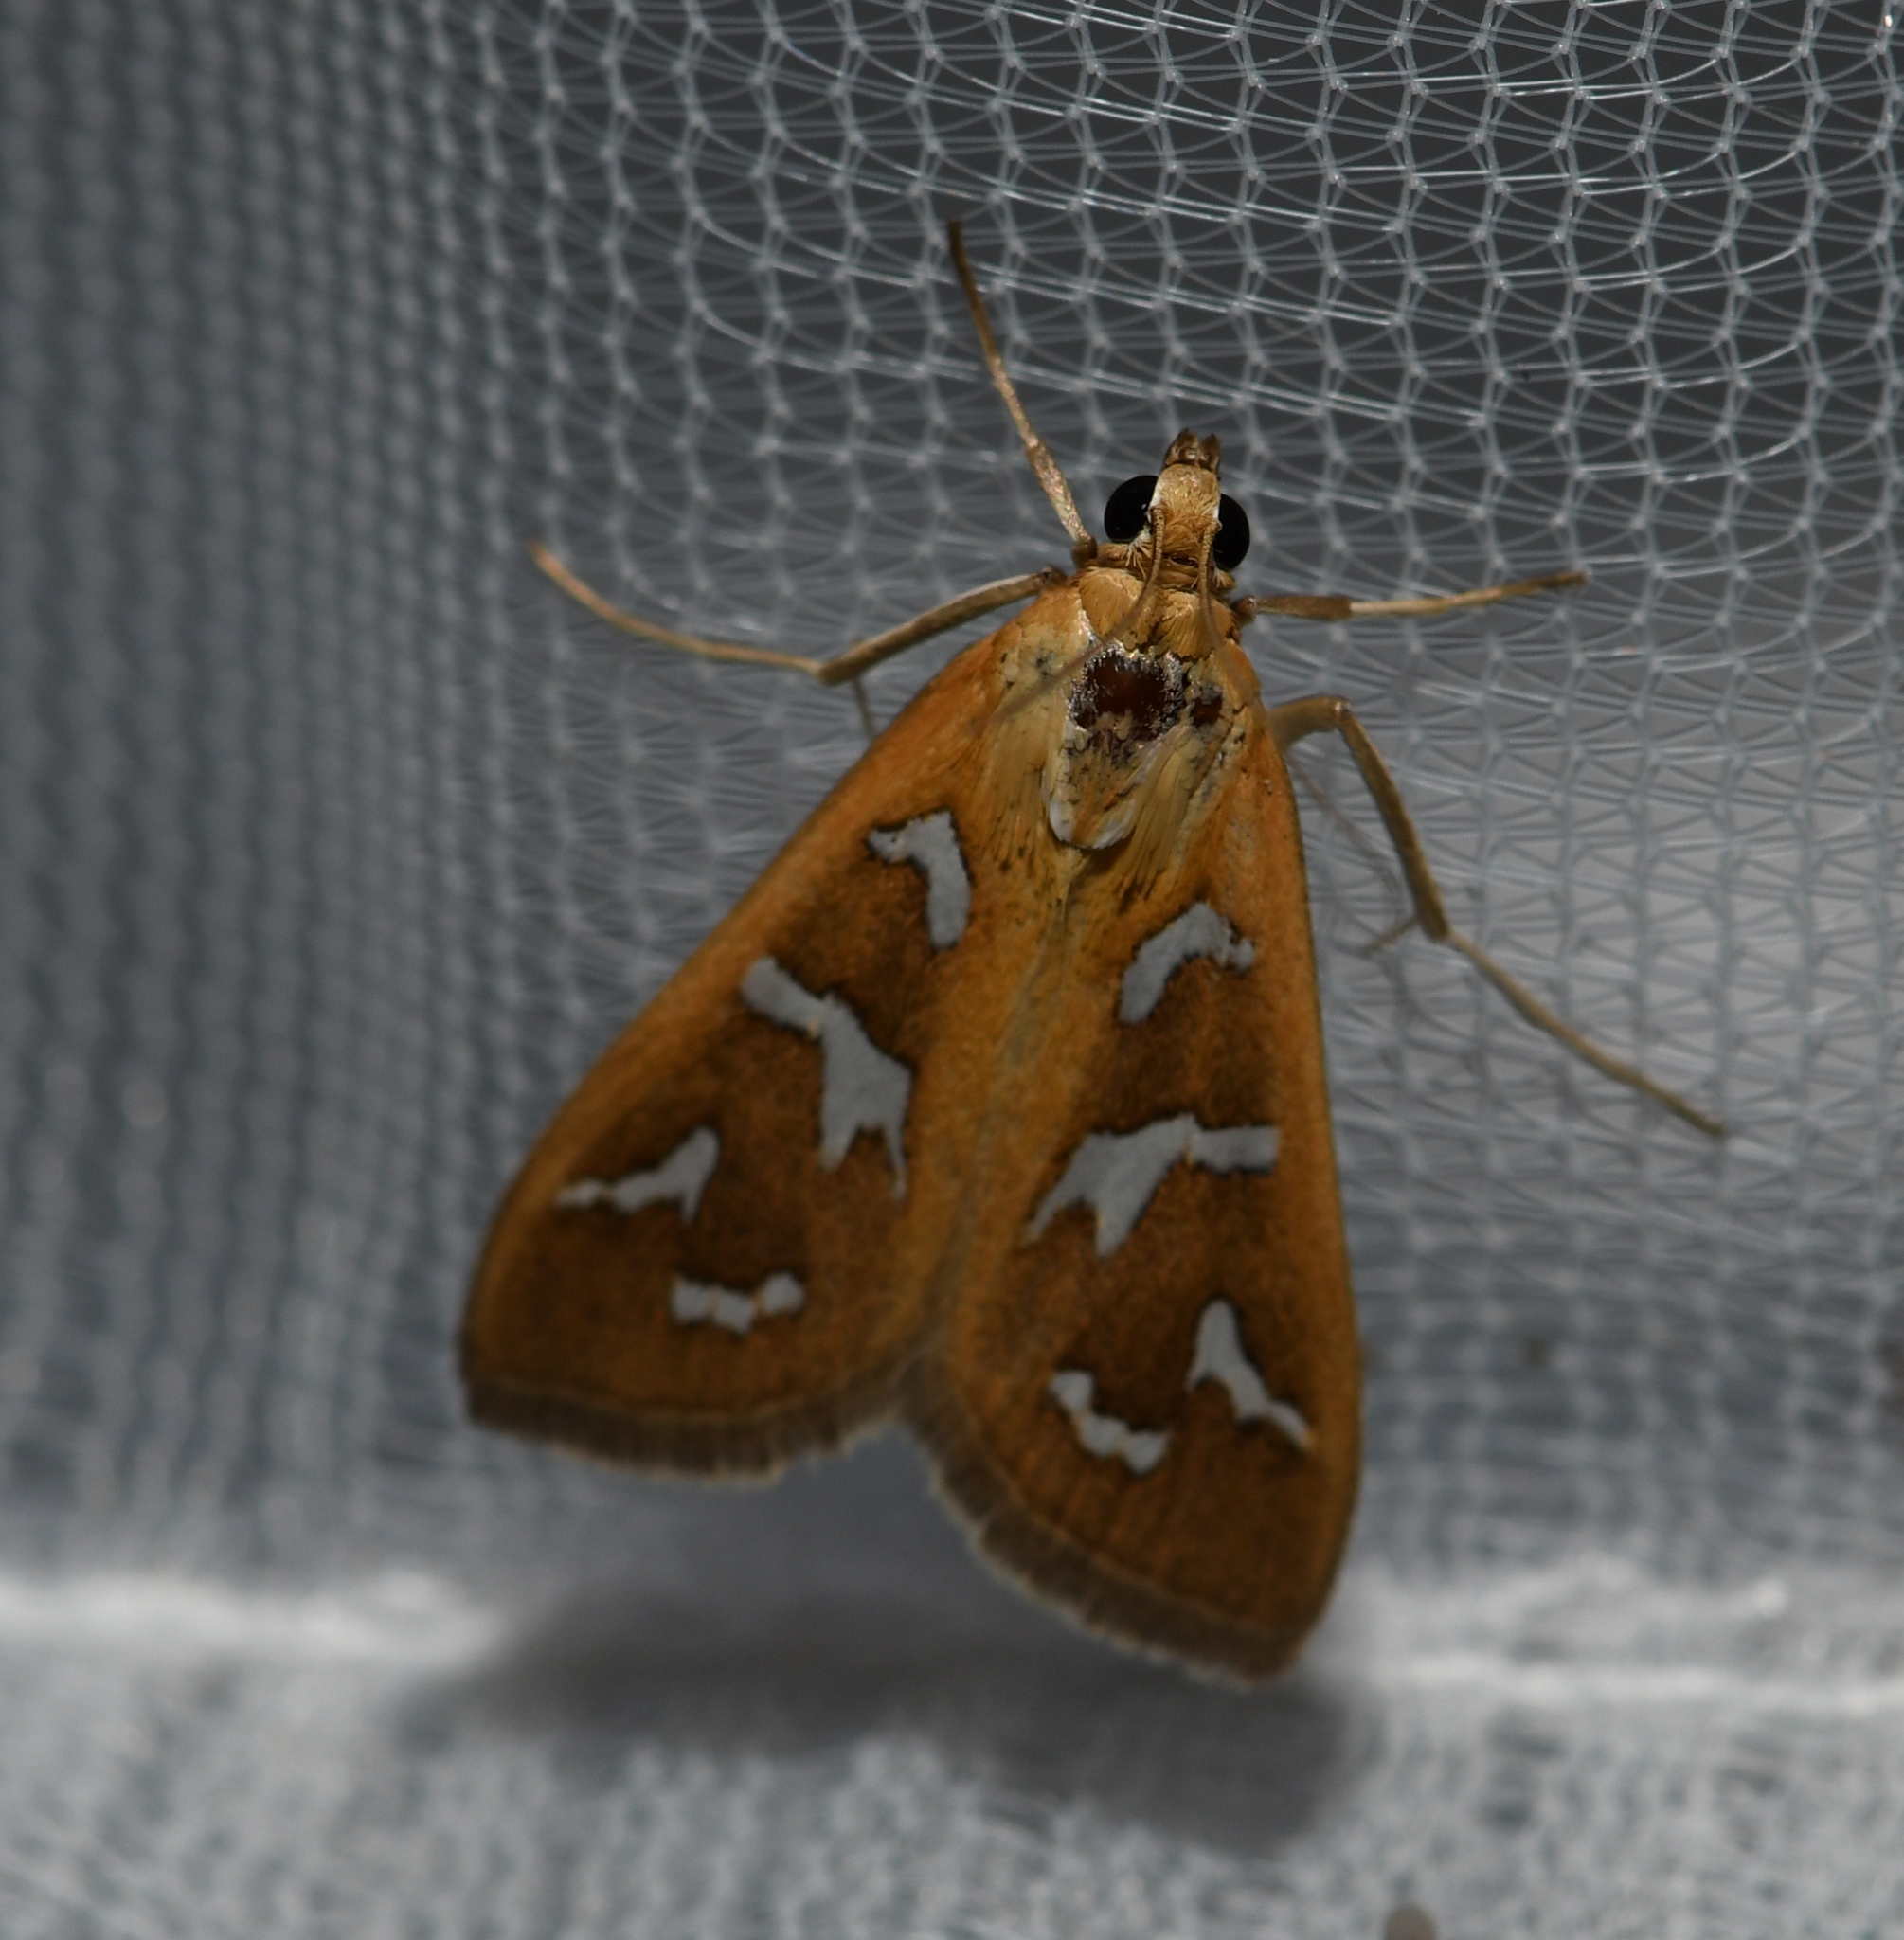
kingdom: Animalia
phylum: Arthropoda
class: Insecta
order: Lepidoptera
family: Crambidae
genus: Diastictis
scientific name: Diastictis fracturalis
